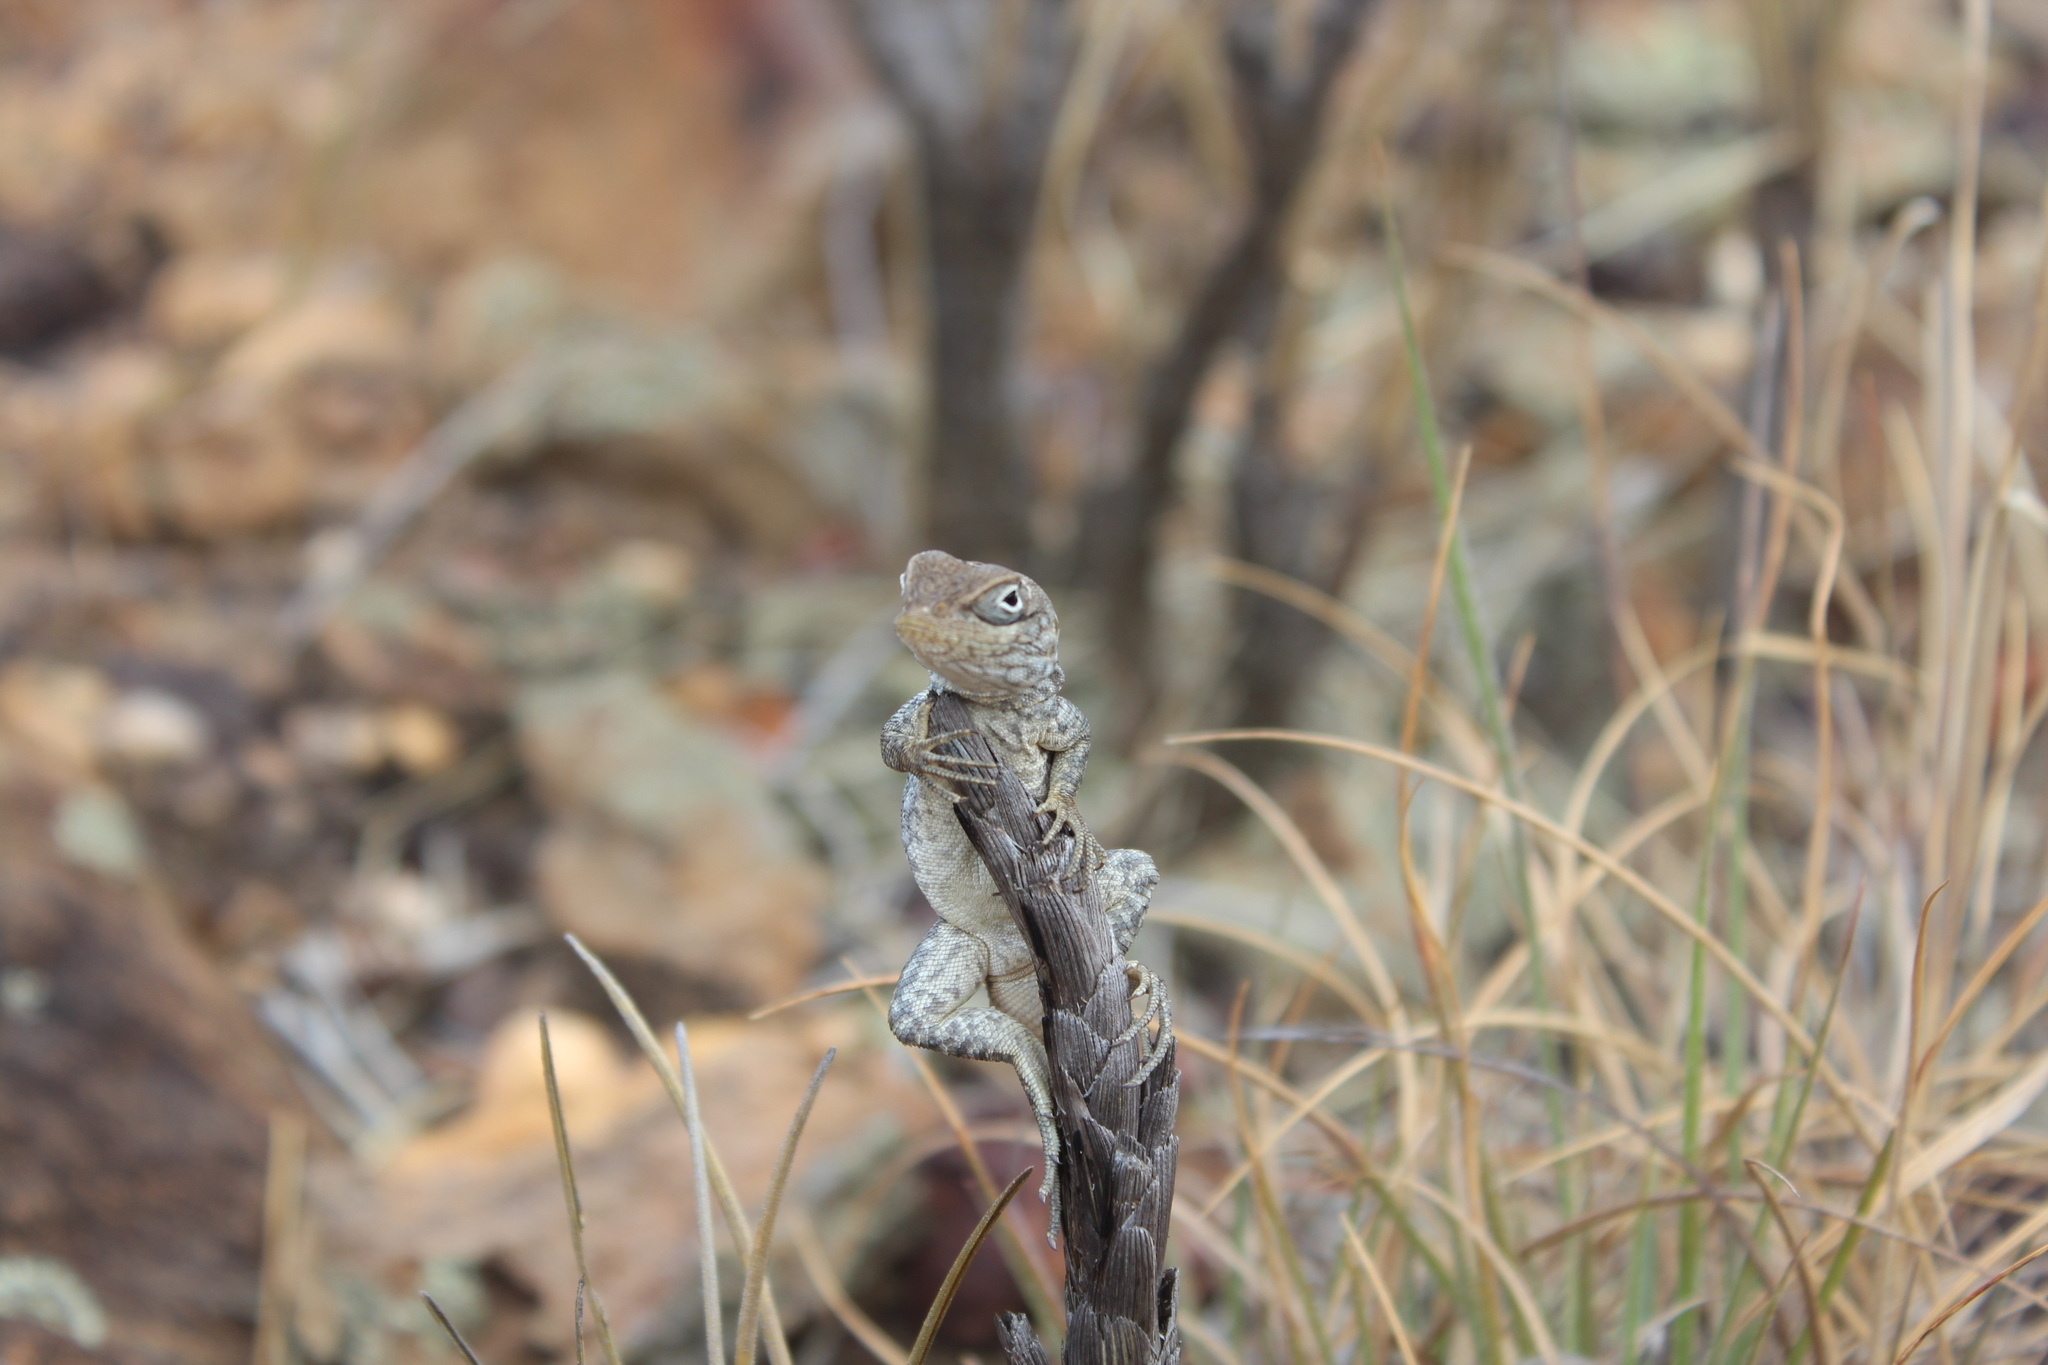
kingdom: Animalia
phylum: Chordata
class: Squamata
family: Opluridae
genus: Oplurus
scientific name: Oplurus cyclurus
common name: Merrem's madagascar swift
